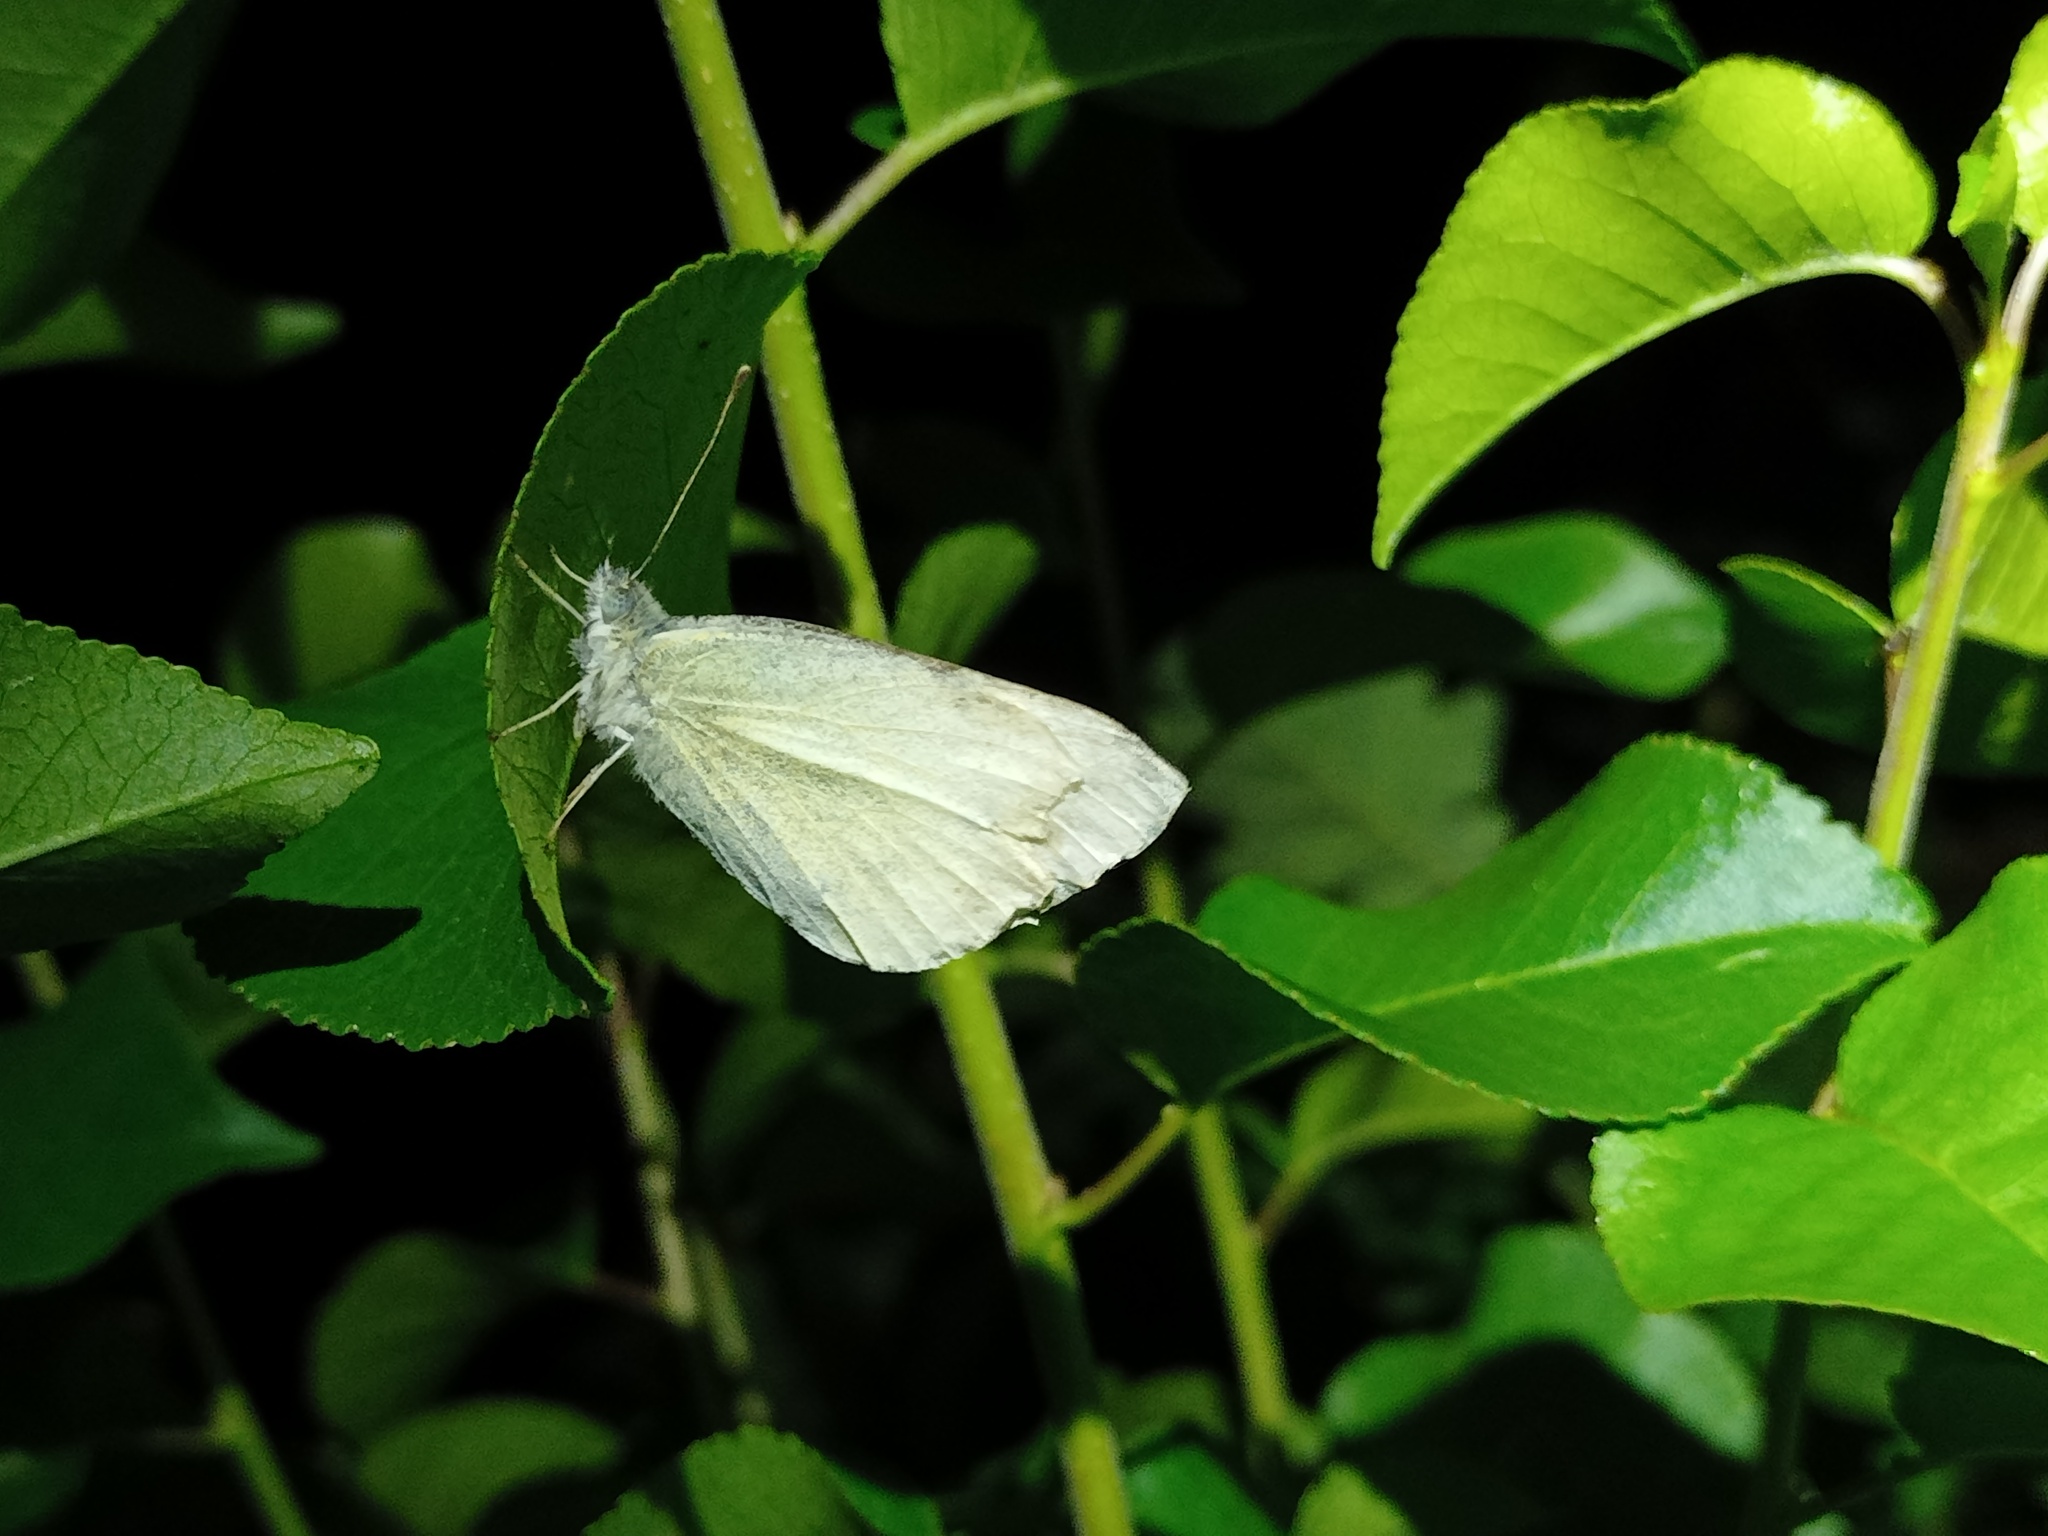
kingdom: Animalia
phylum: Arthropoda
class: Insecta
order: Lepidoptera
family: Pieridae
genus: Pieris
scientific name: Pieris rapae
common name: Small white
